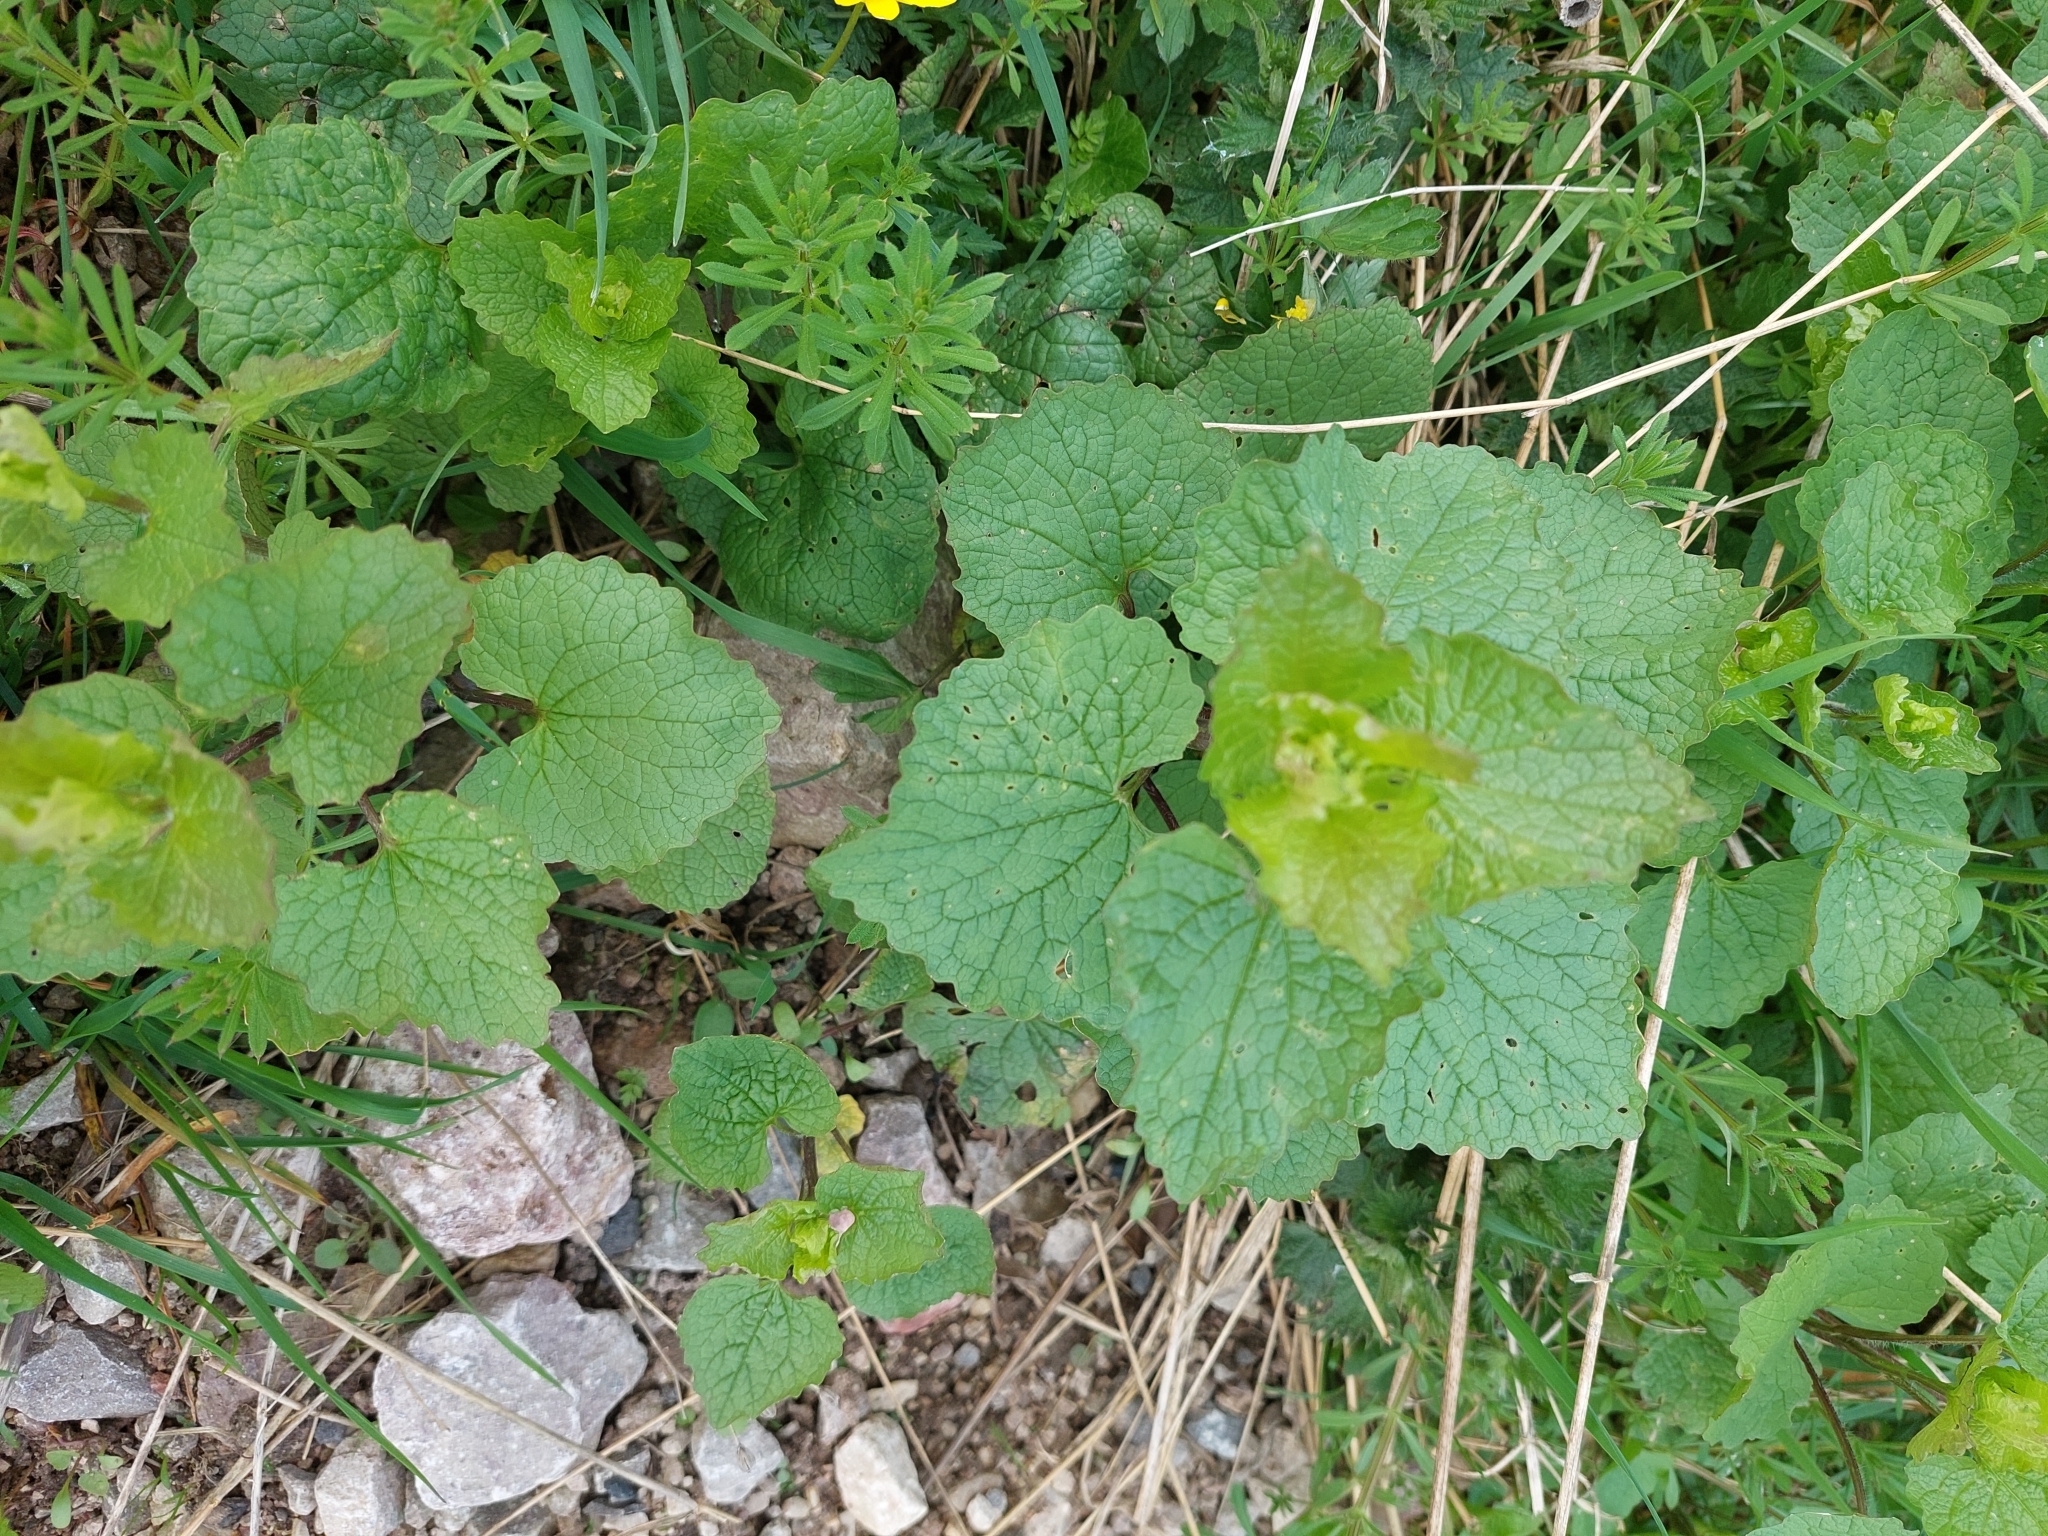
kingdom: Plantae
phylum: Tracheophyta
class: Magnoliopsida
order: Brassicales
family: Brassicaceae
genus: Alliaria
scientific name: Alliaria petiolata
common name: Garlic mustard
